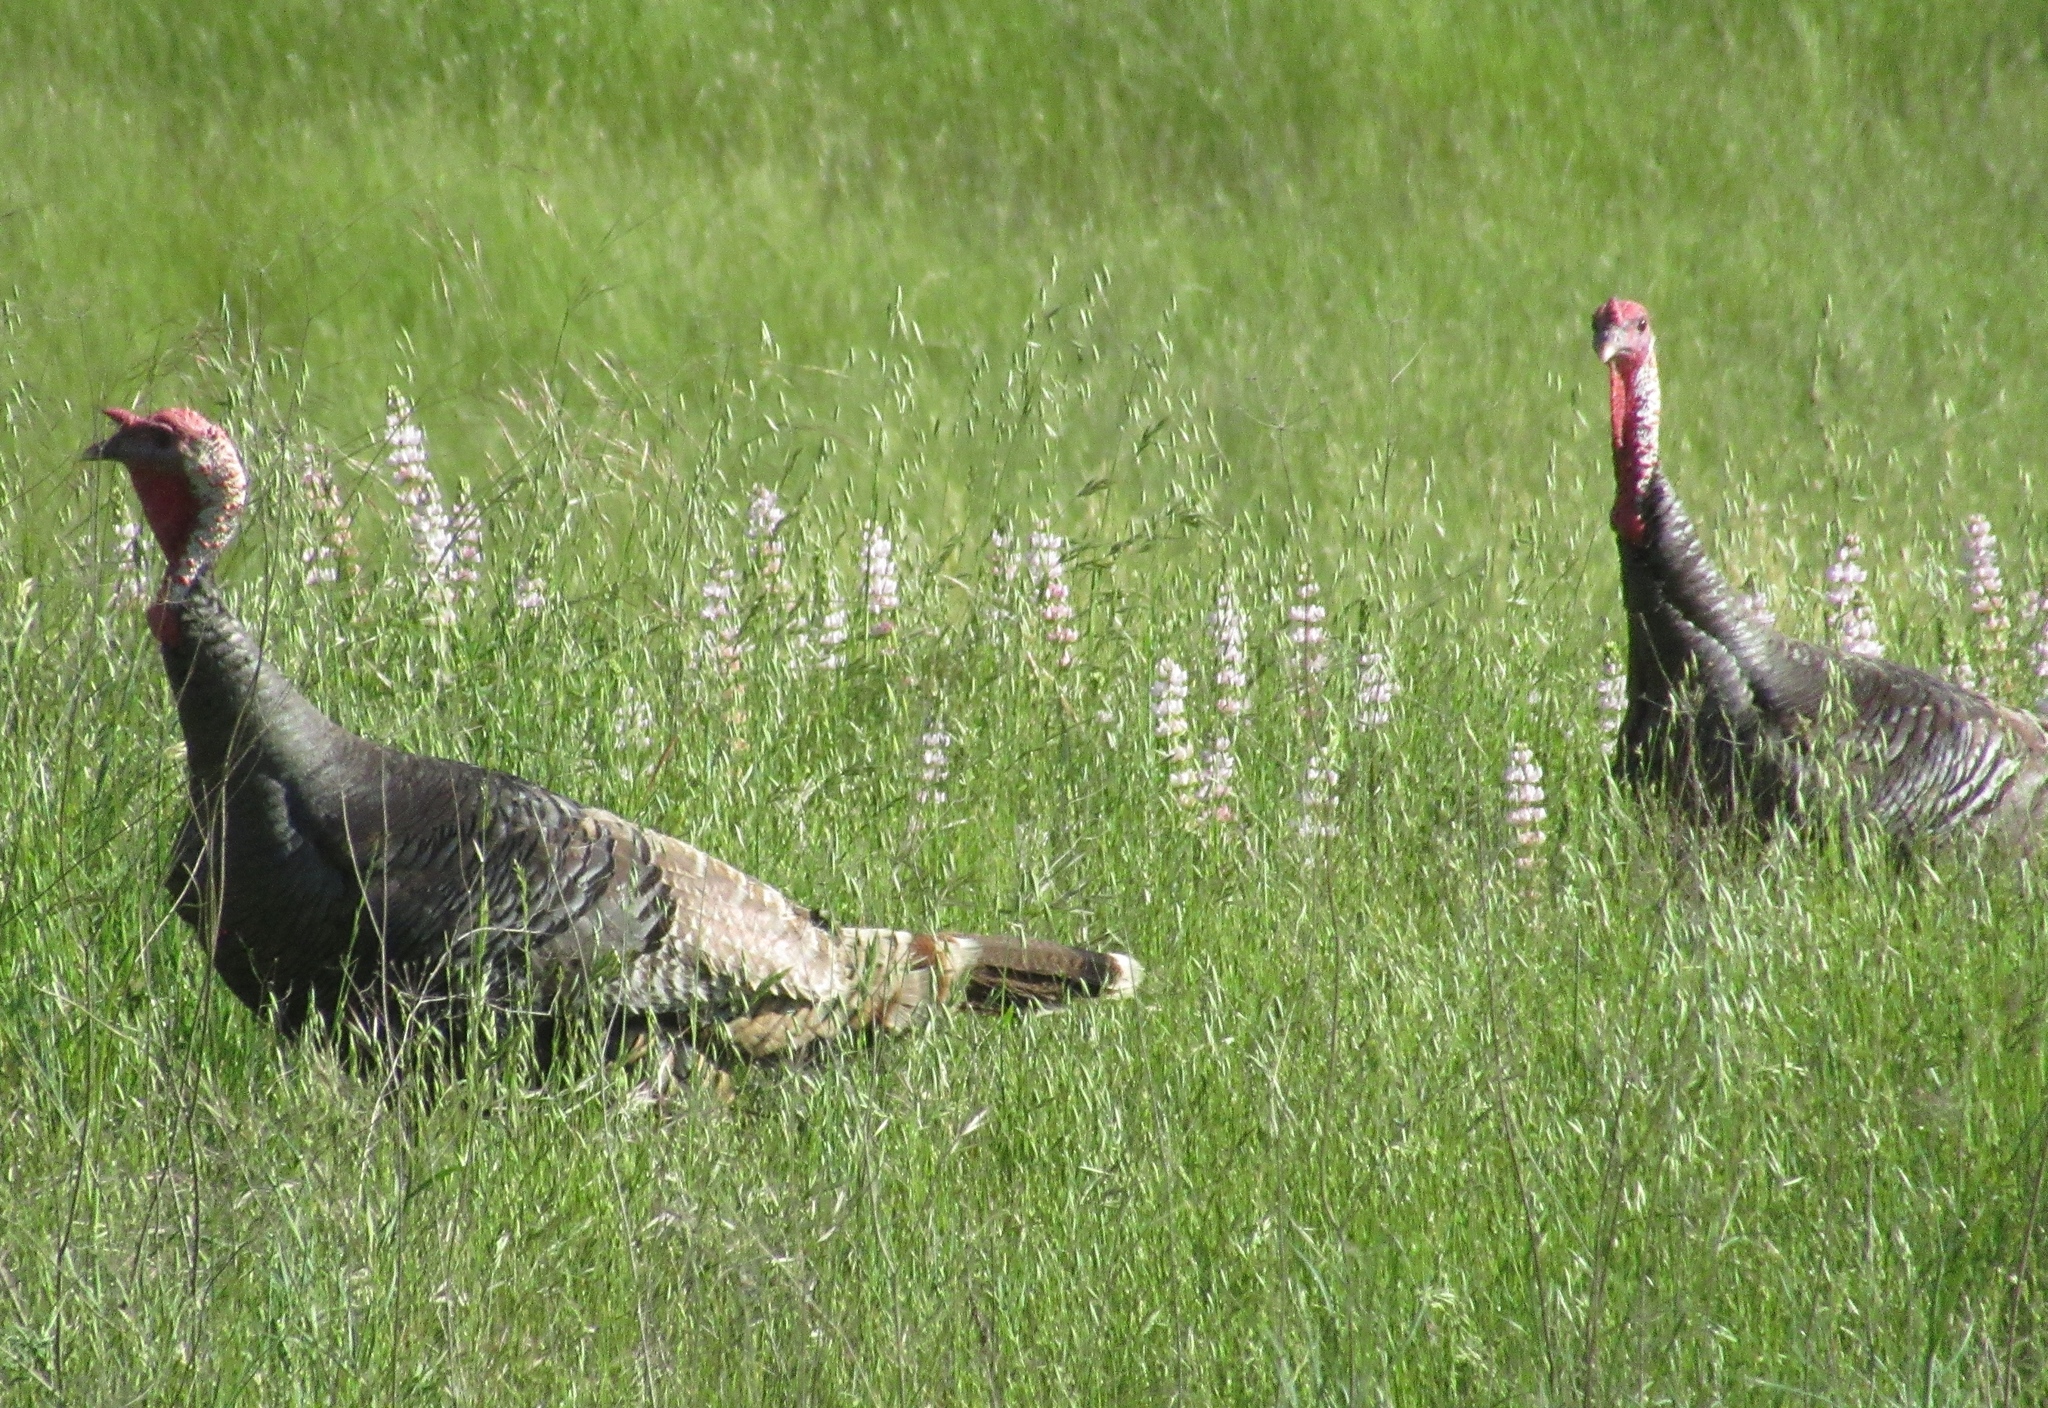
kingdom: Animalia
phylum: Chordata
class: Aves
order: Galliformes
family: Phasianidae
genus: Meleagris
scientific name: Meleagris gallopavo
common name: Wild turkey
